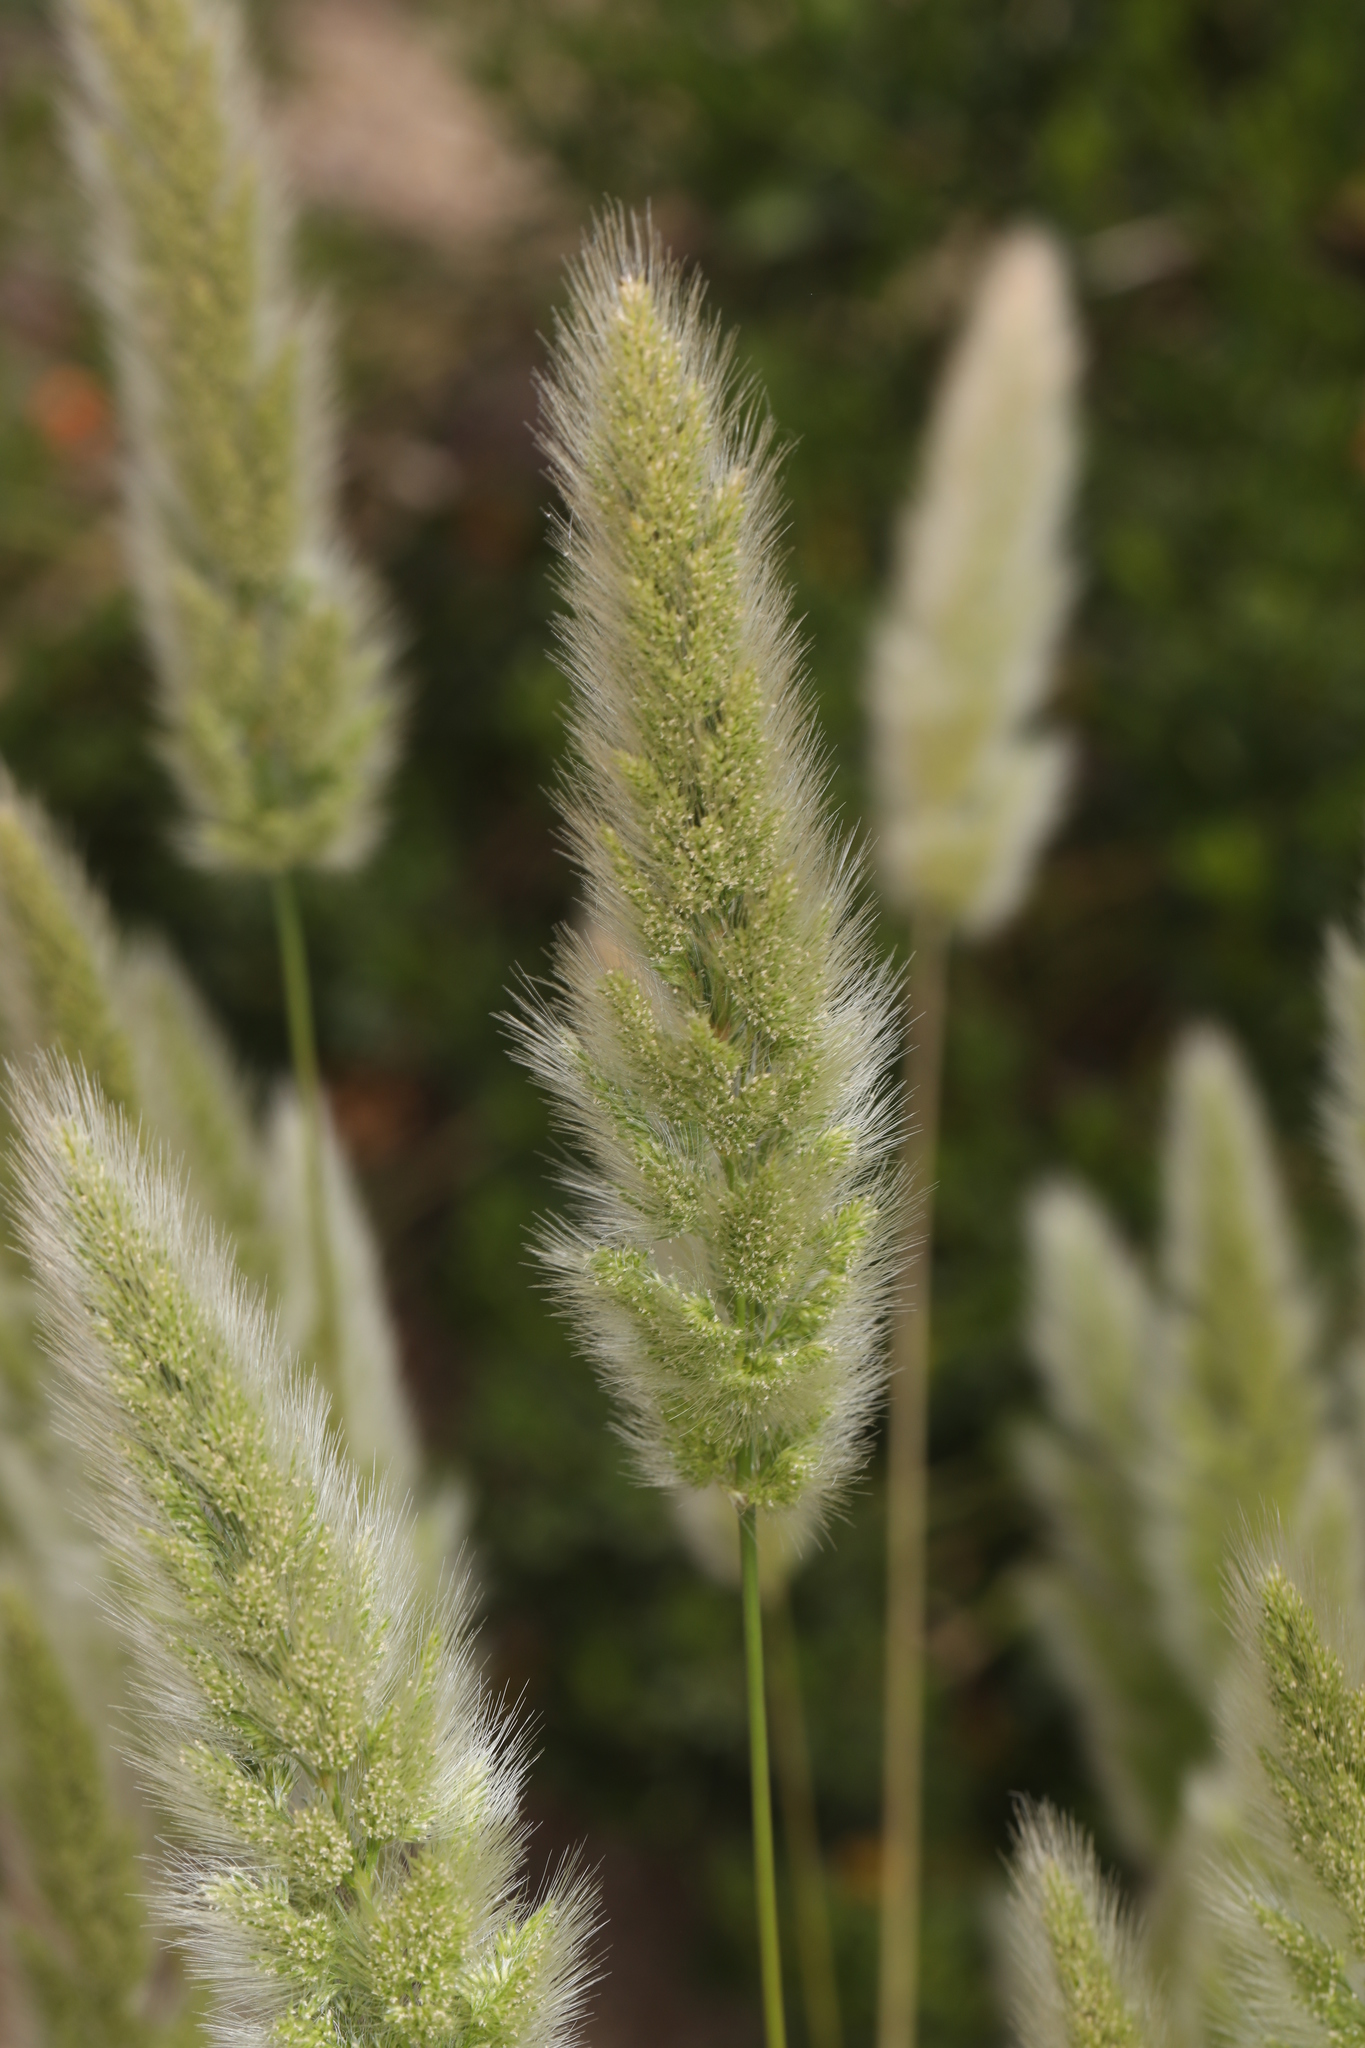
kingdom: Plantae
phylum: Tracheophyta
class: Liliopsida
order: Poales
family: Poaceae
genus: Polypogon
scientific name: Polypogon monspeliensis
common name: Annual rabbitsfoot grass
